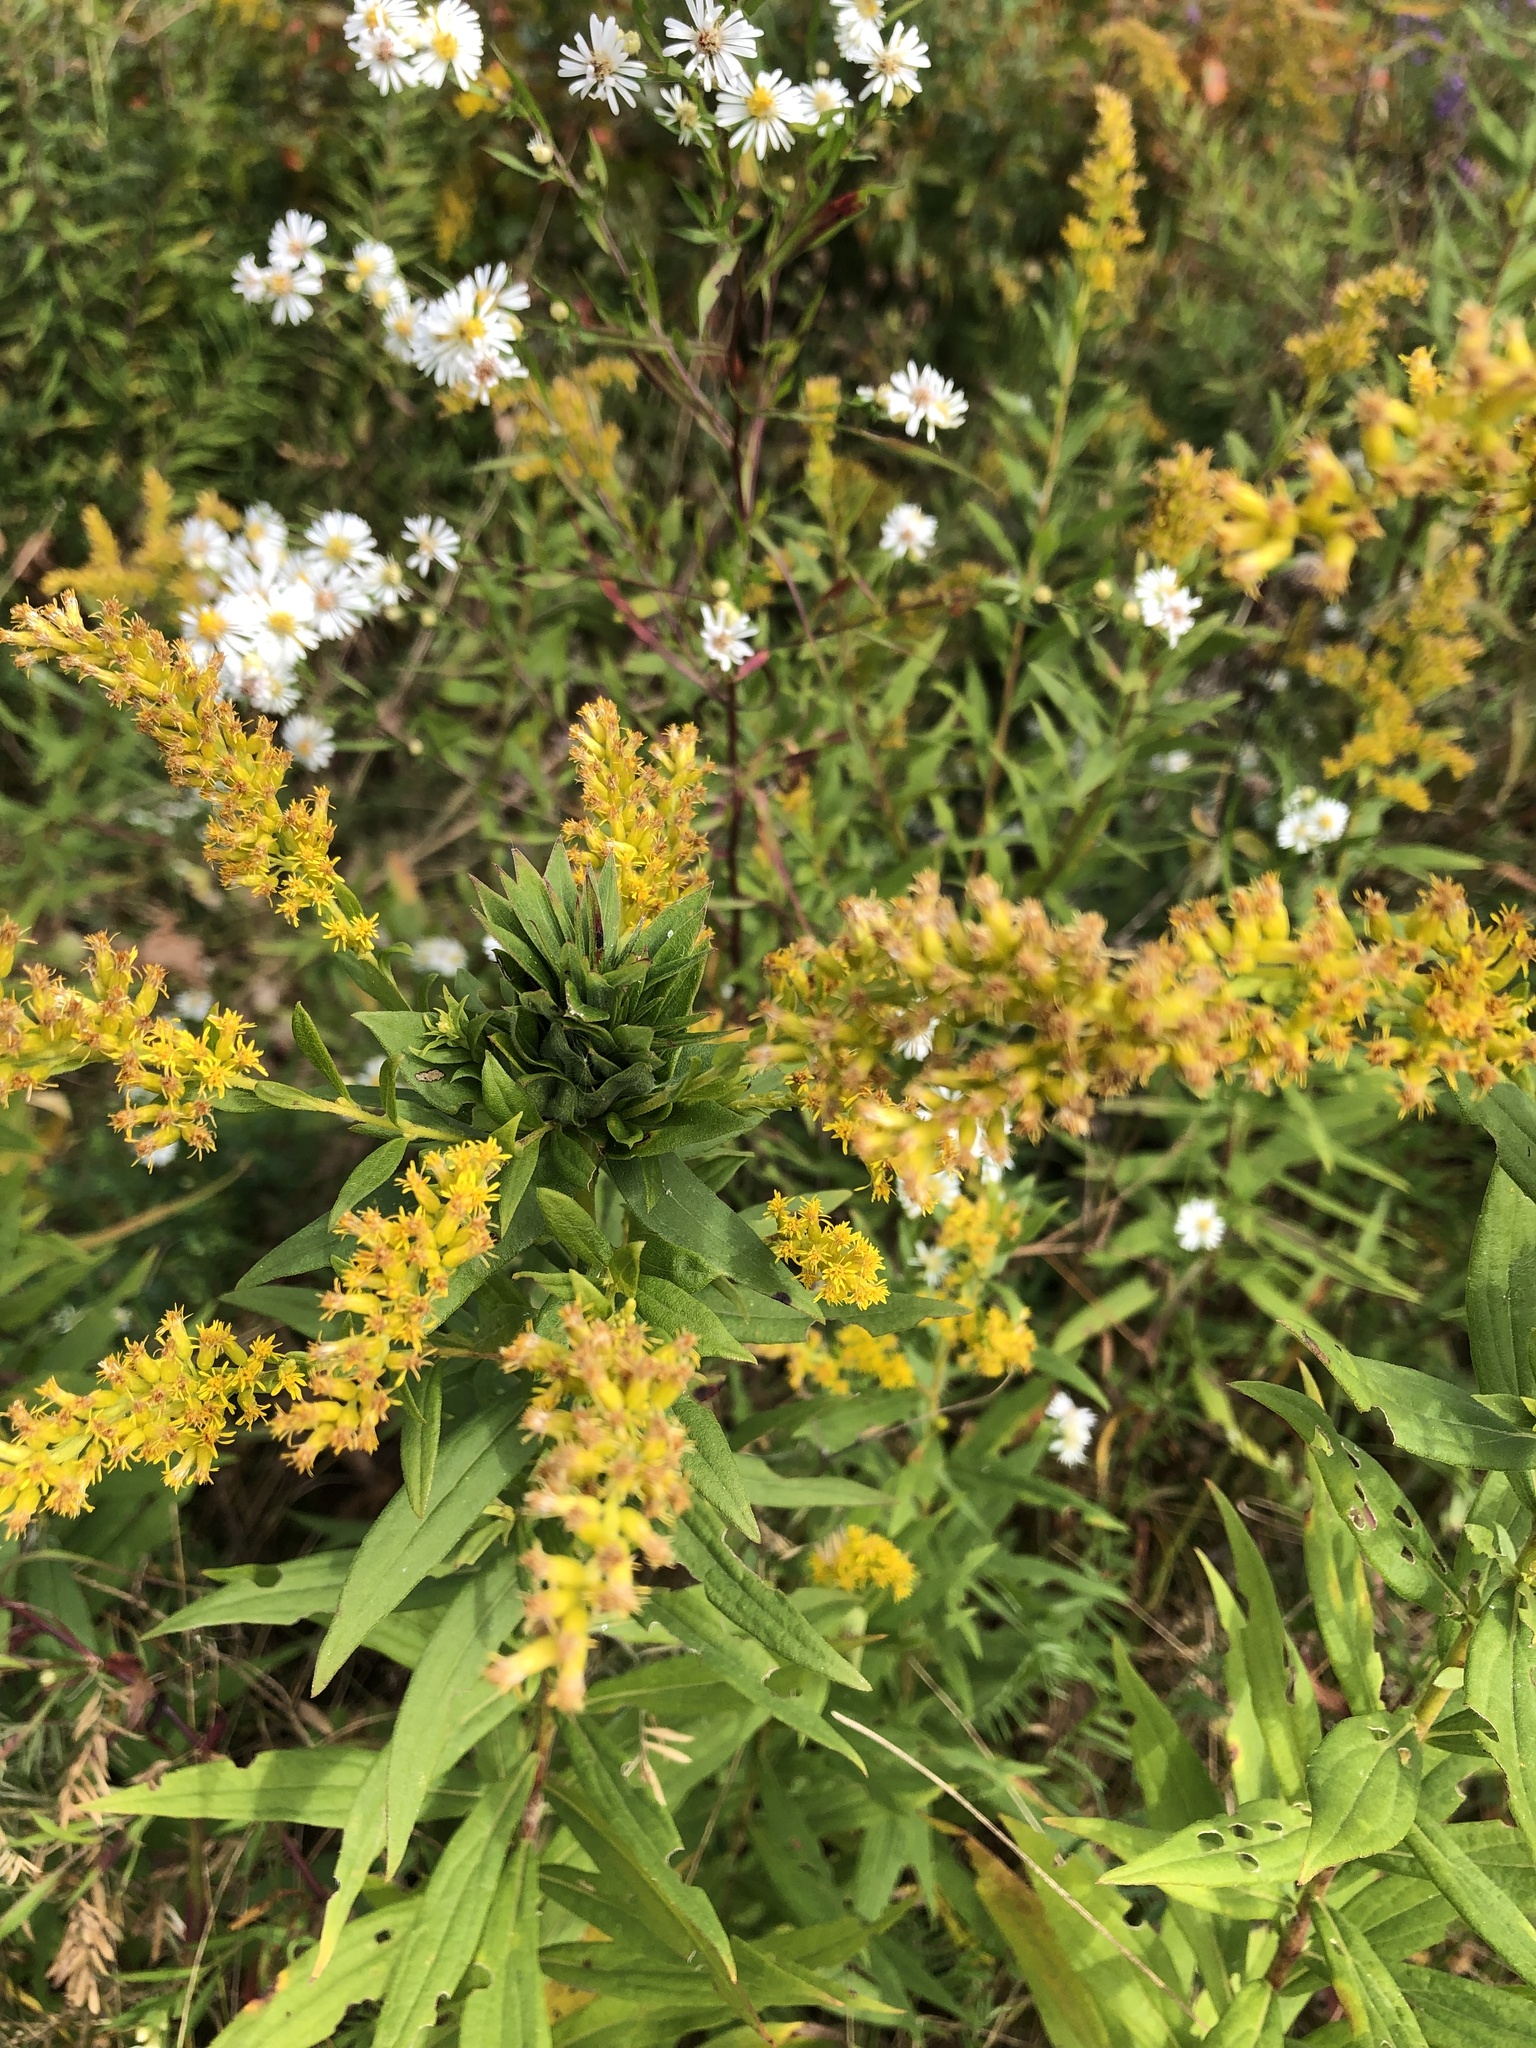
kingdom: Animalia
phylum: Arthropoda
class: Insecta
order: Diptera
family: Cecidomyiidae
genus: Rhopalomyia
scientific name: Rhopalomyia solidaginis
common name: Goldenrod bunch gall midge
